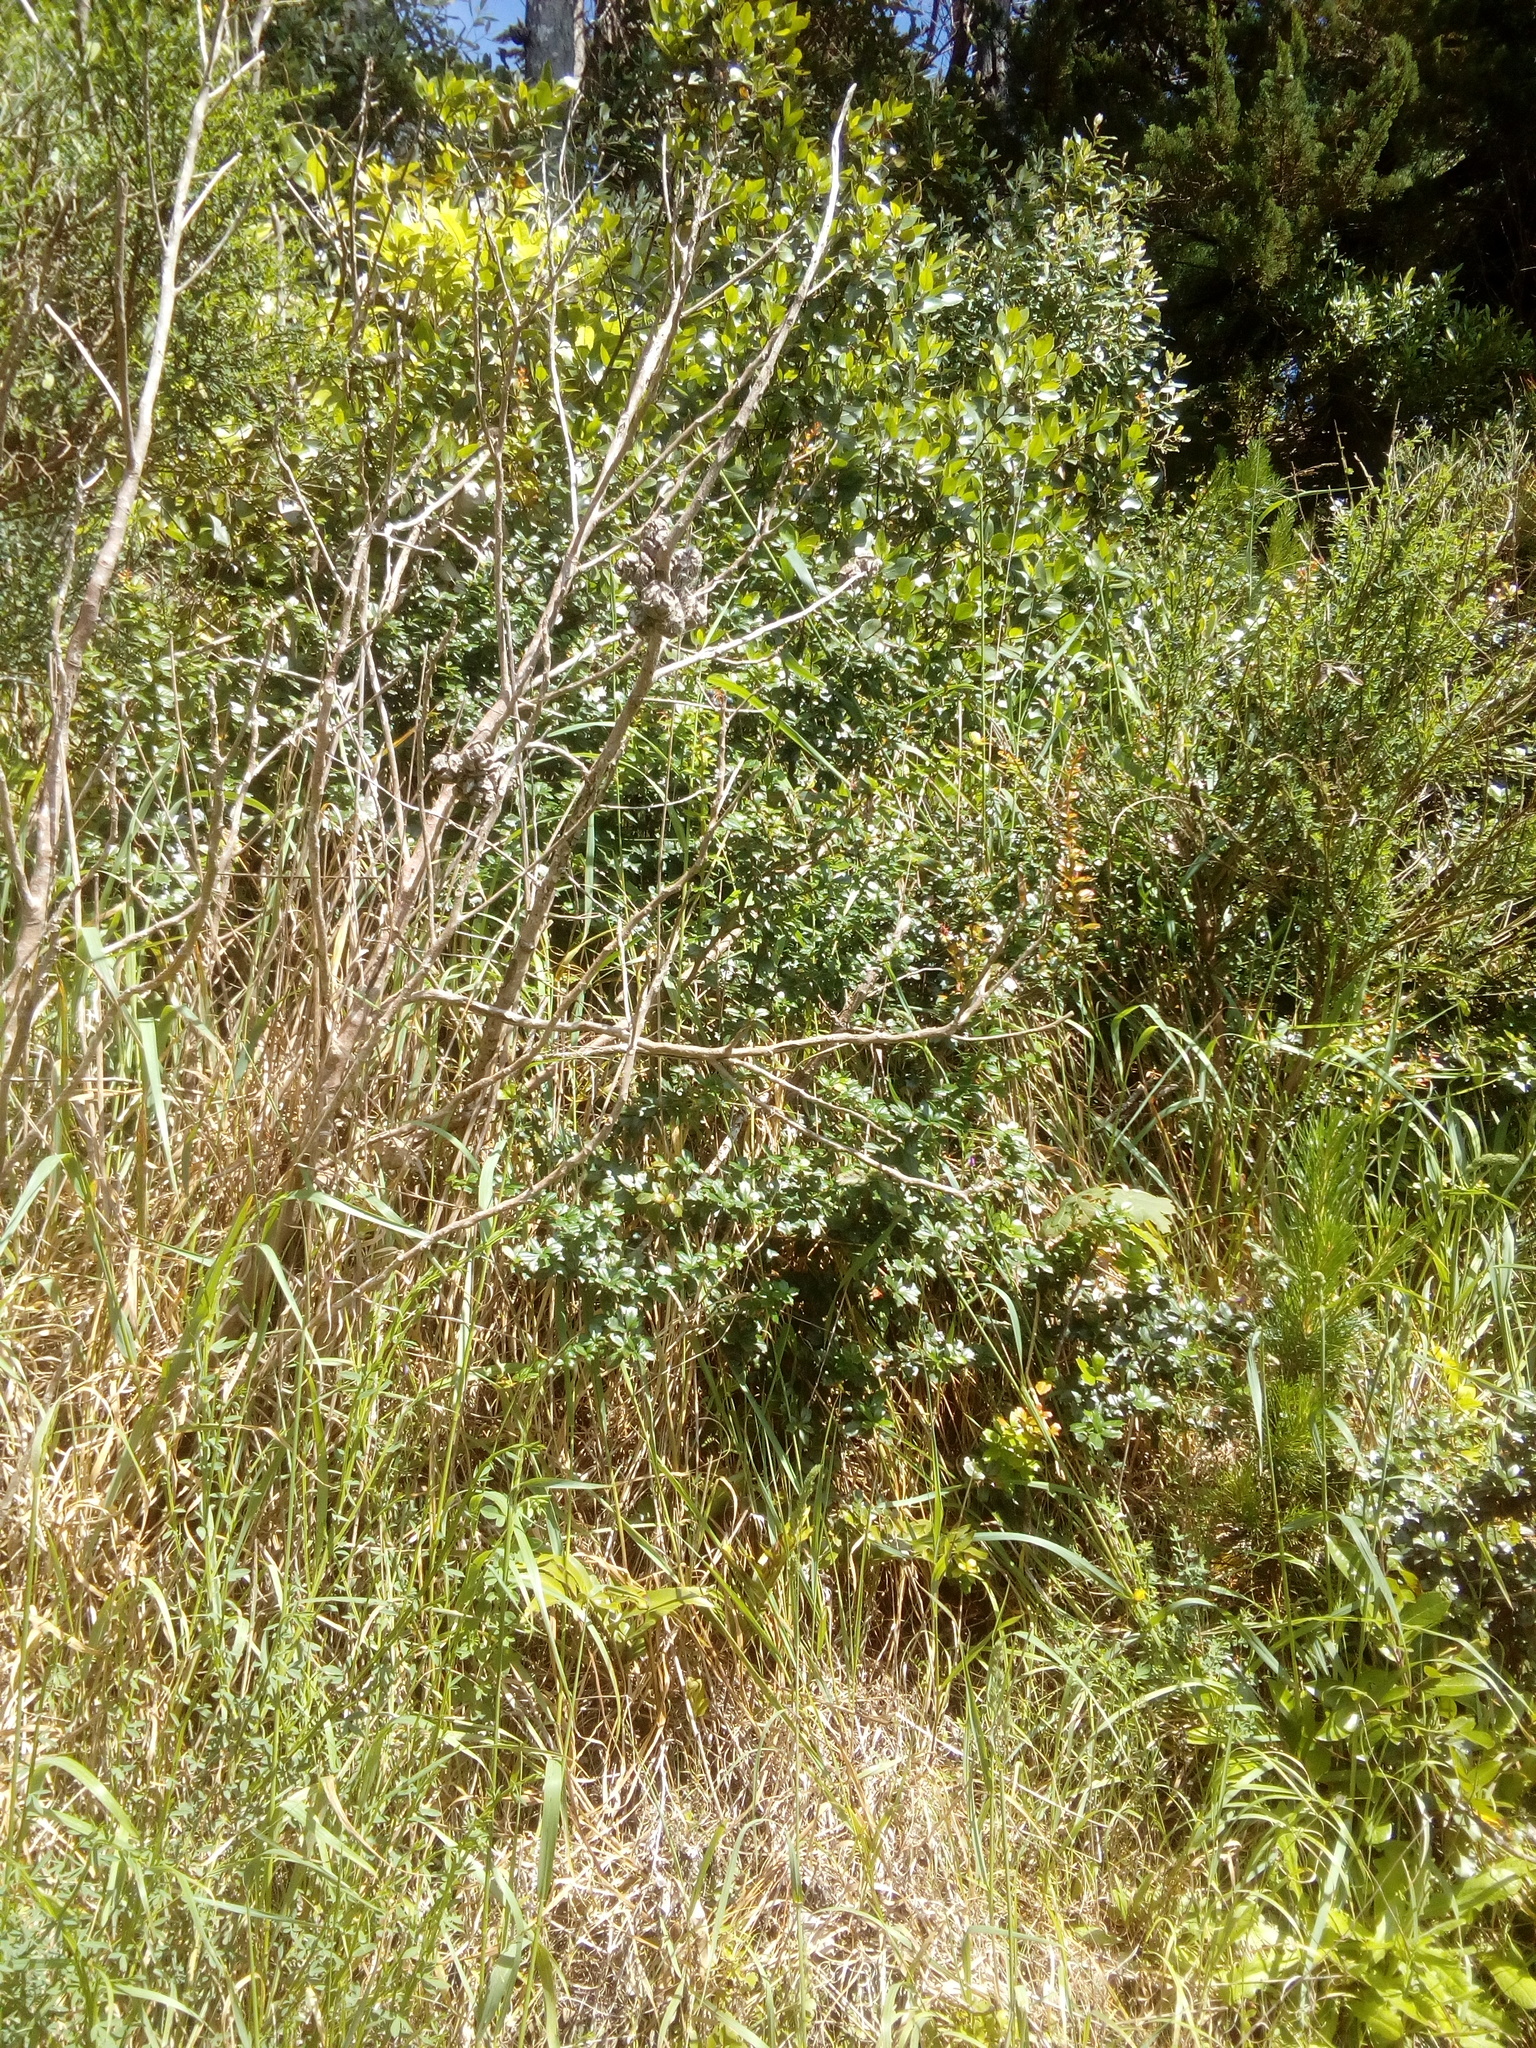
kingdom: Plantae
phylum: Tracheophyta
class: Magnoliopsida
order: Ranunculales
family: Berberidaceae
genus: Berberis
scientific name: Berberis darwinii
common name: Darwin's barberry
